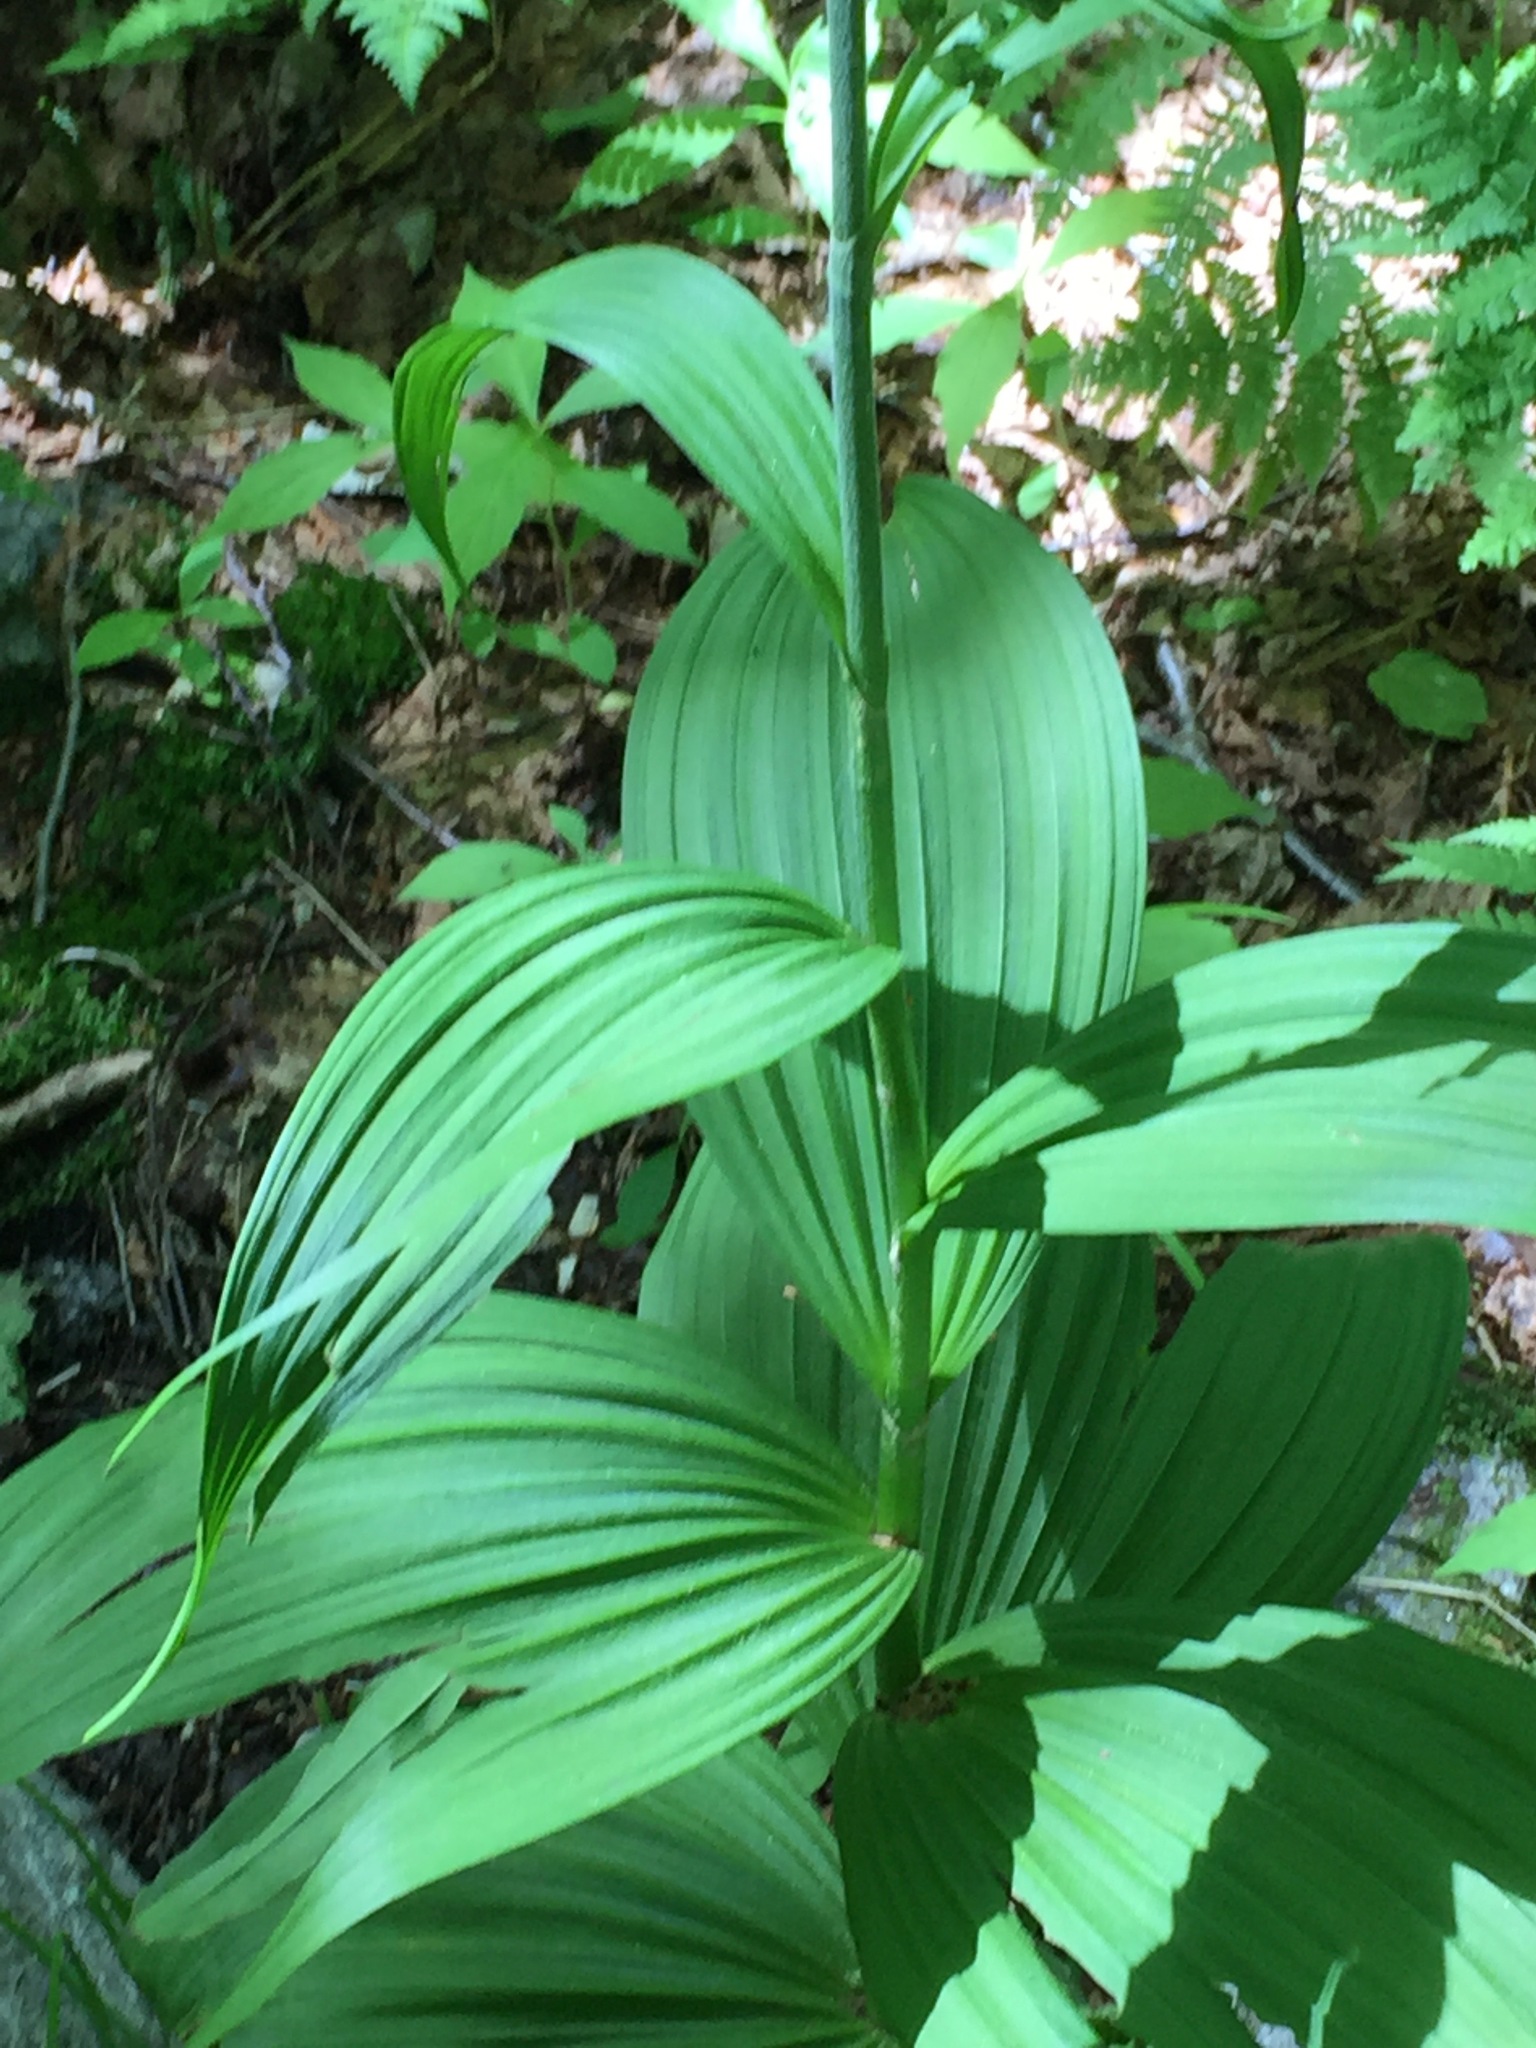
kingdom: Plantae
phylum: Tracheophyta
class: Liliopsida
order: Liliales
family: Melanthiaceae
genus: Veratrum
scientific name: Veratrum viride
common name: American false hellebore
